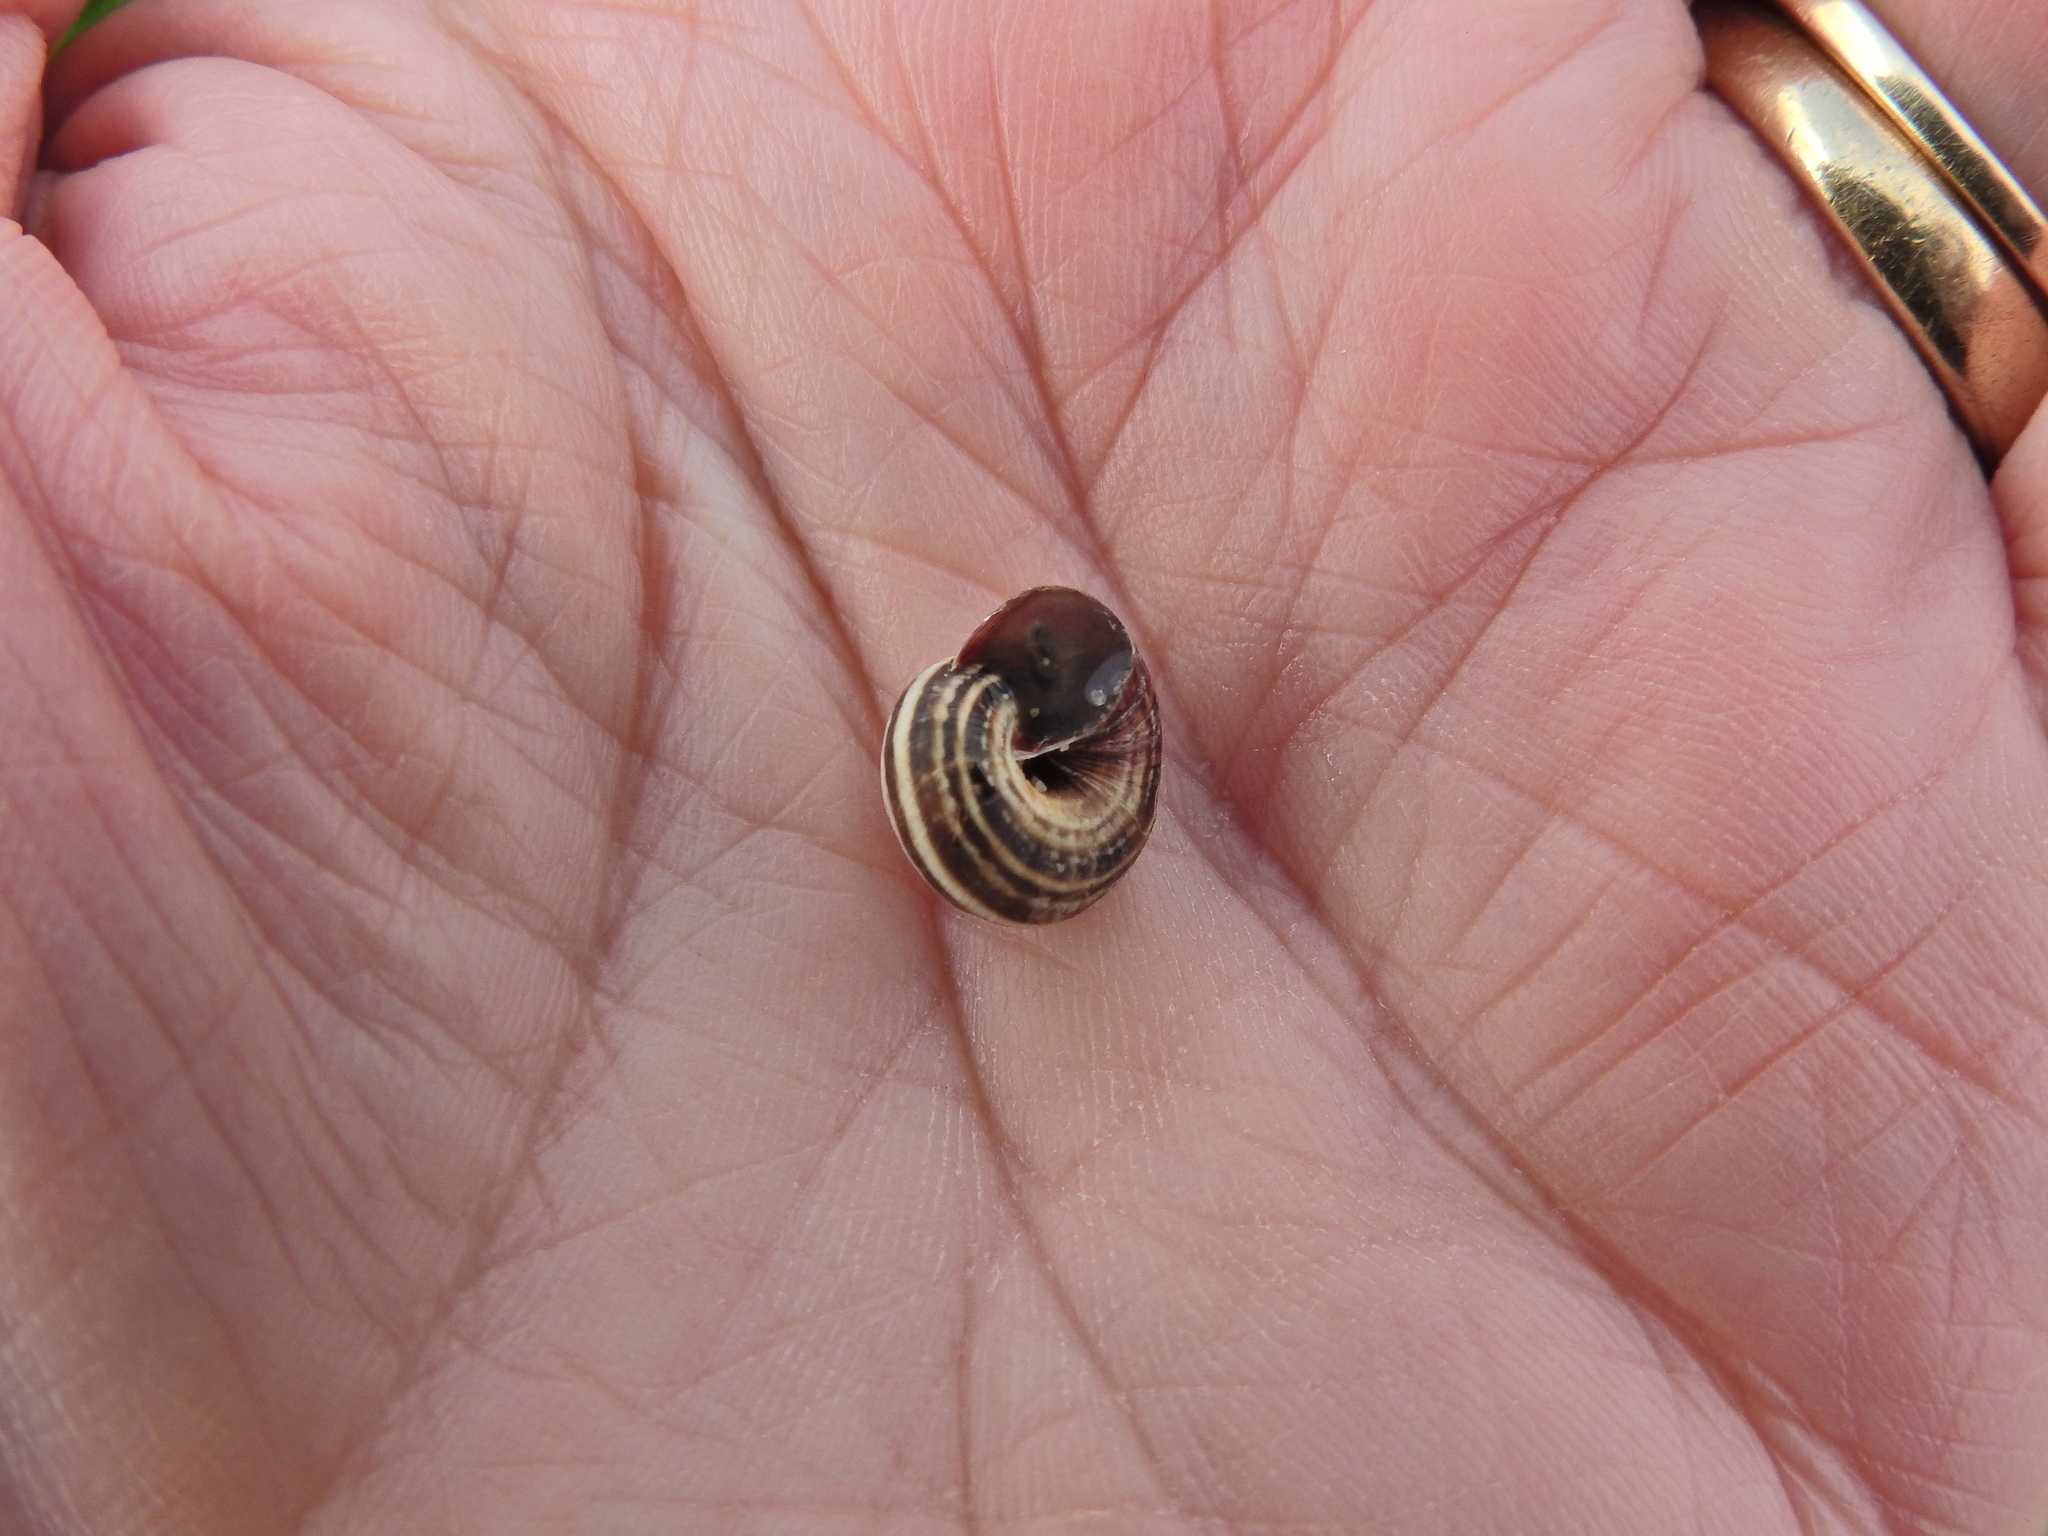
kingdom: Animalia
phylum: Mollusca
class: Gastropoda
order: Stylommatophora
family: Geomitridae
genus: Cernuella
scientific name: Cernuella virgata
